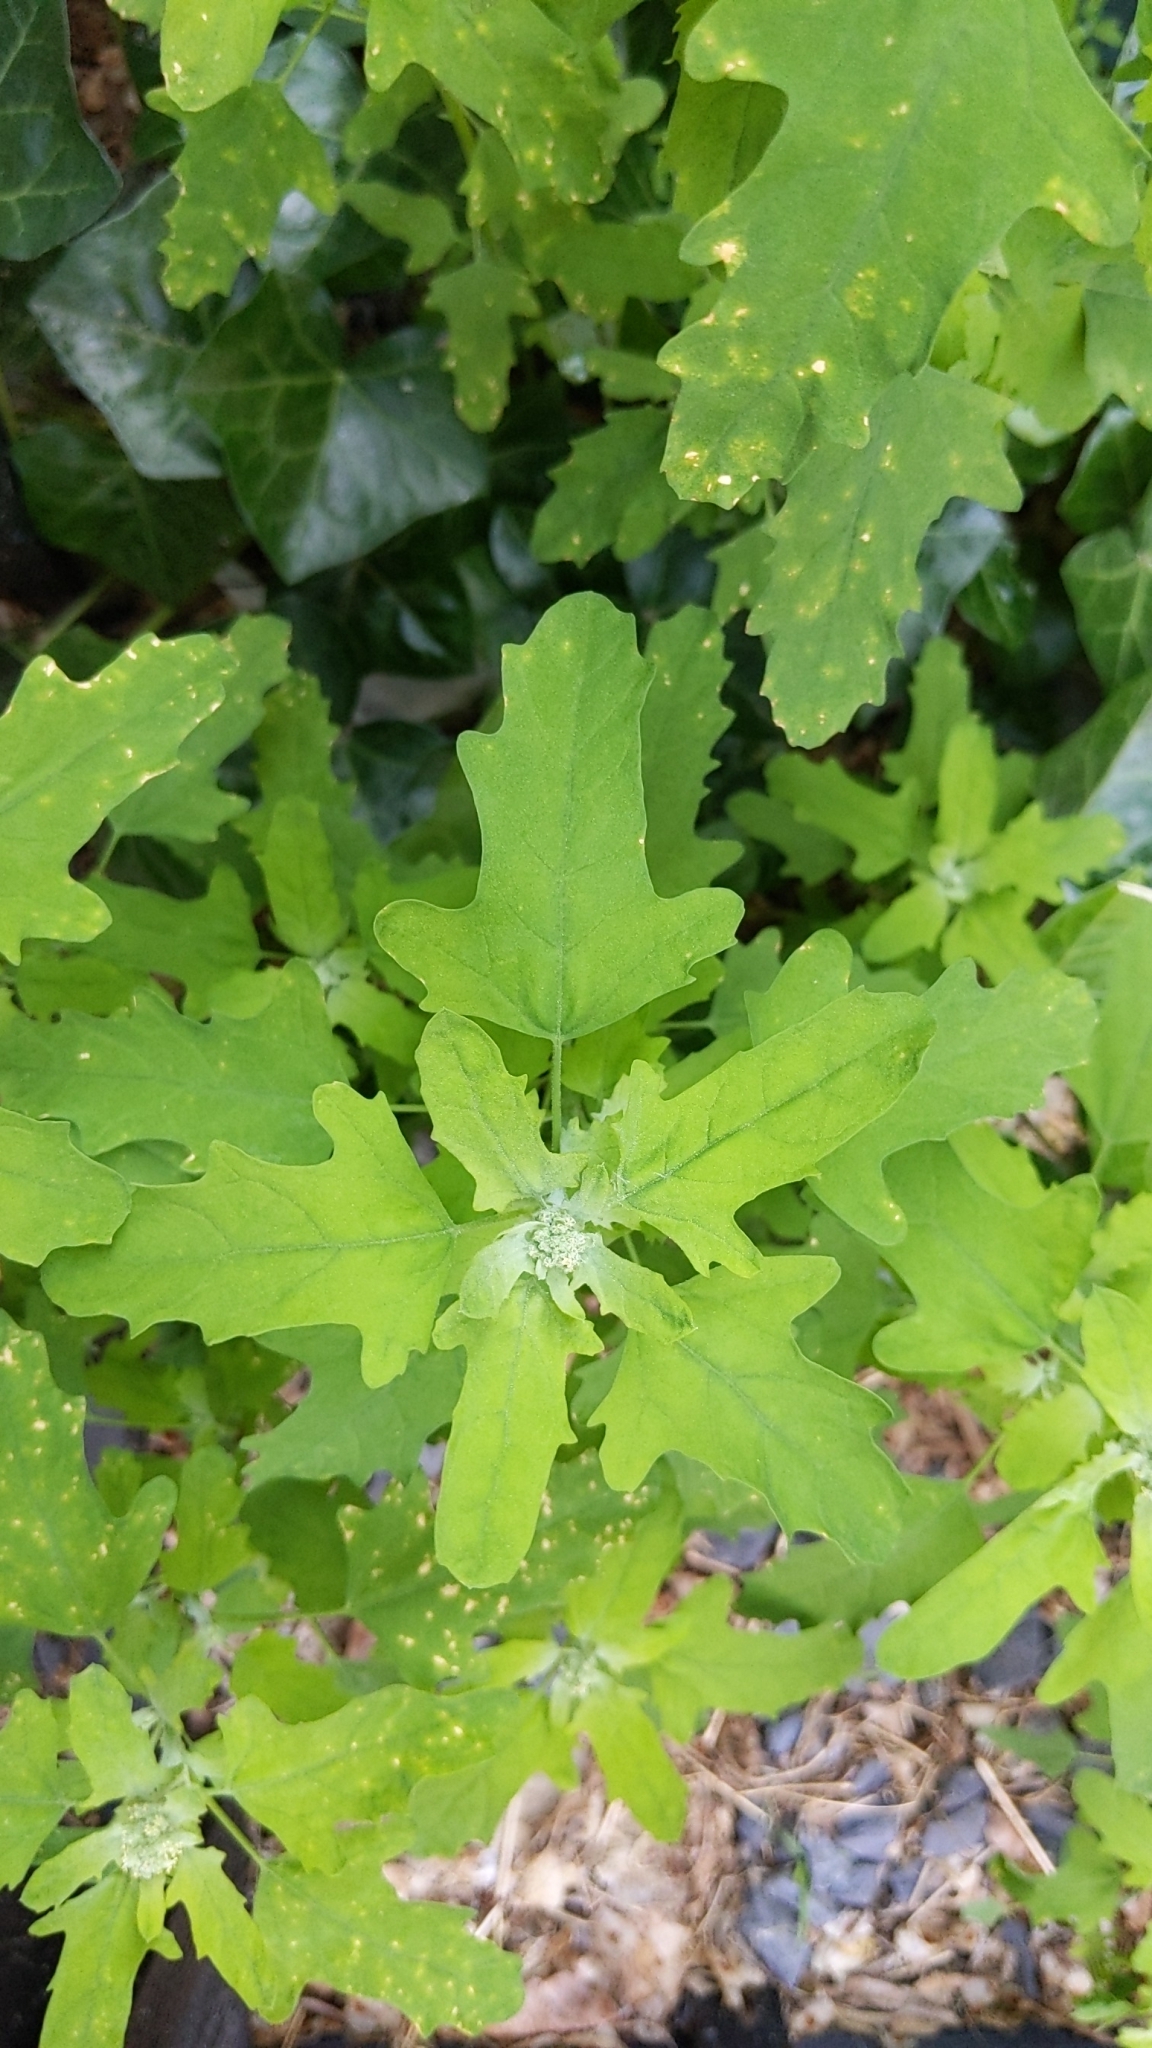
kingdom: Plantae
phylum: Tracheophyta
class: Magnoliopsida
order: Caryophyllales
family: Amaranthaceae
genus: Chenopodium
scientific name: Chenopodium ficifolium
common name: Fig-leaved goosefoot
